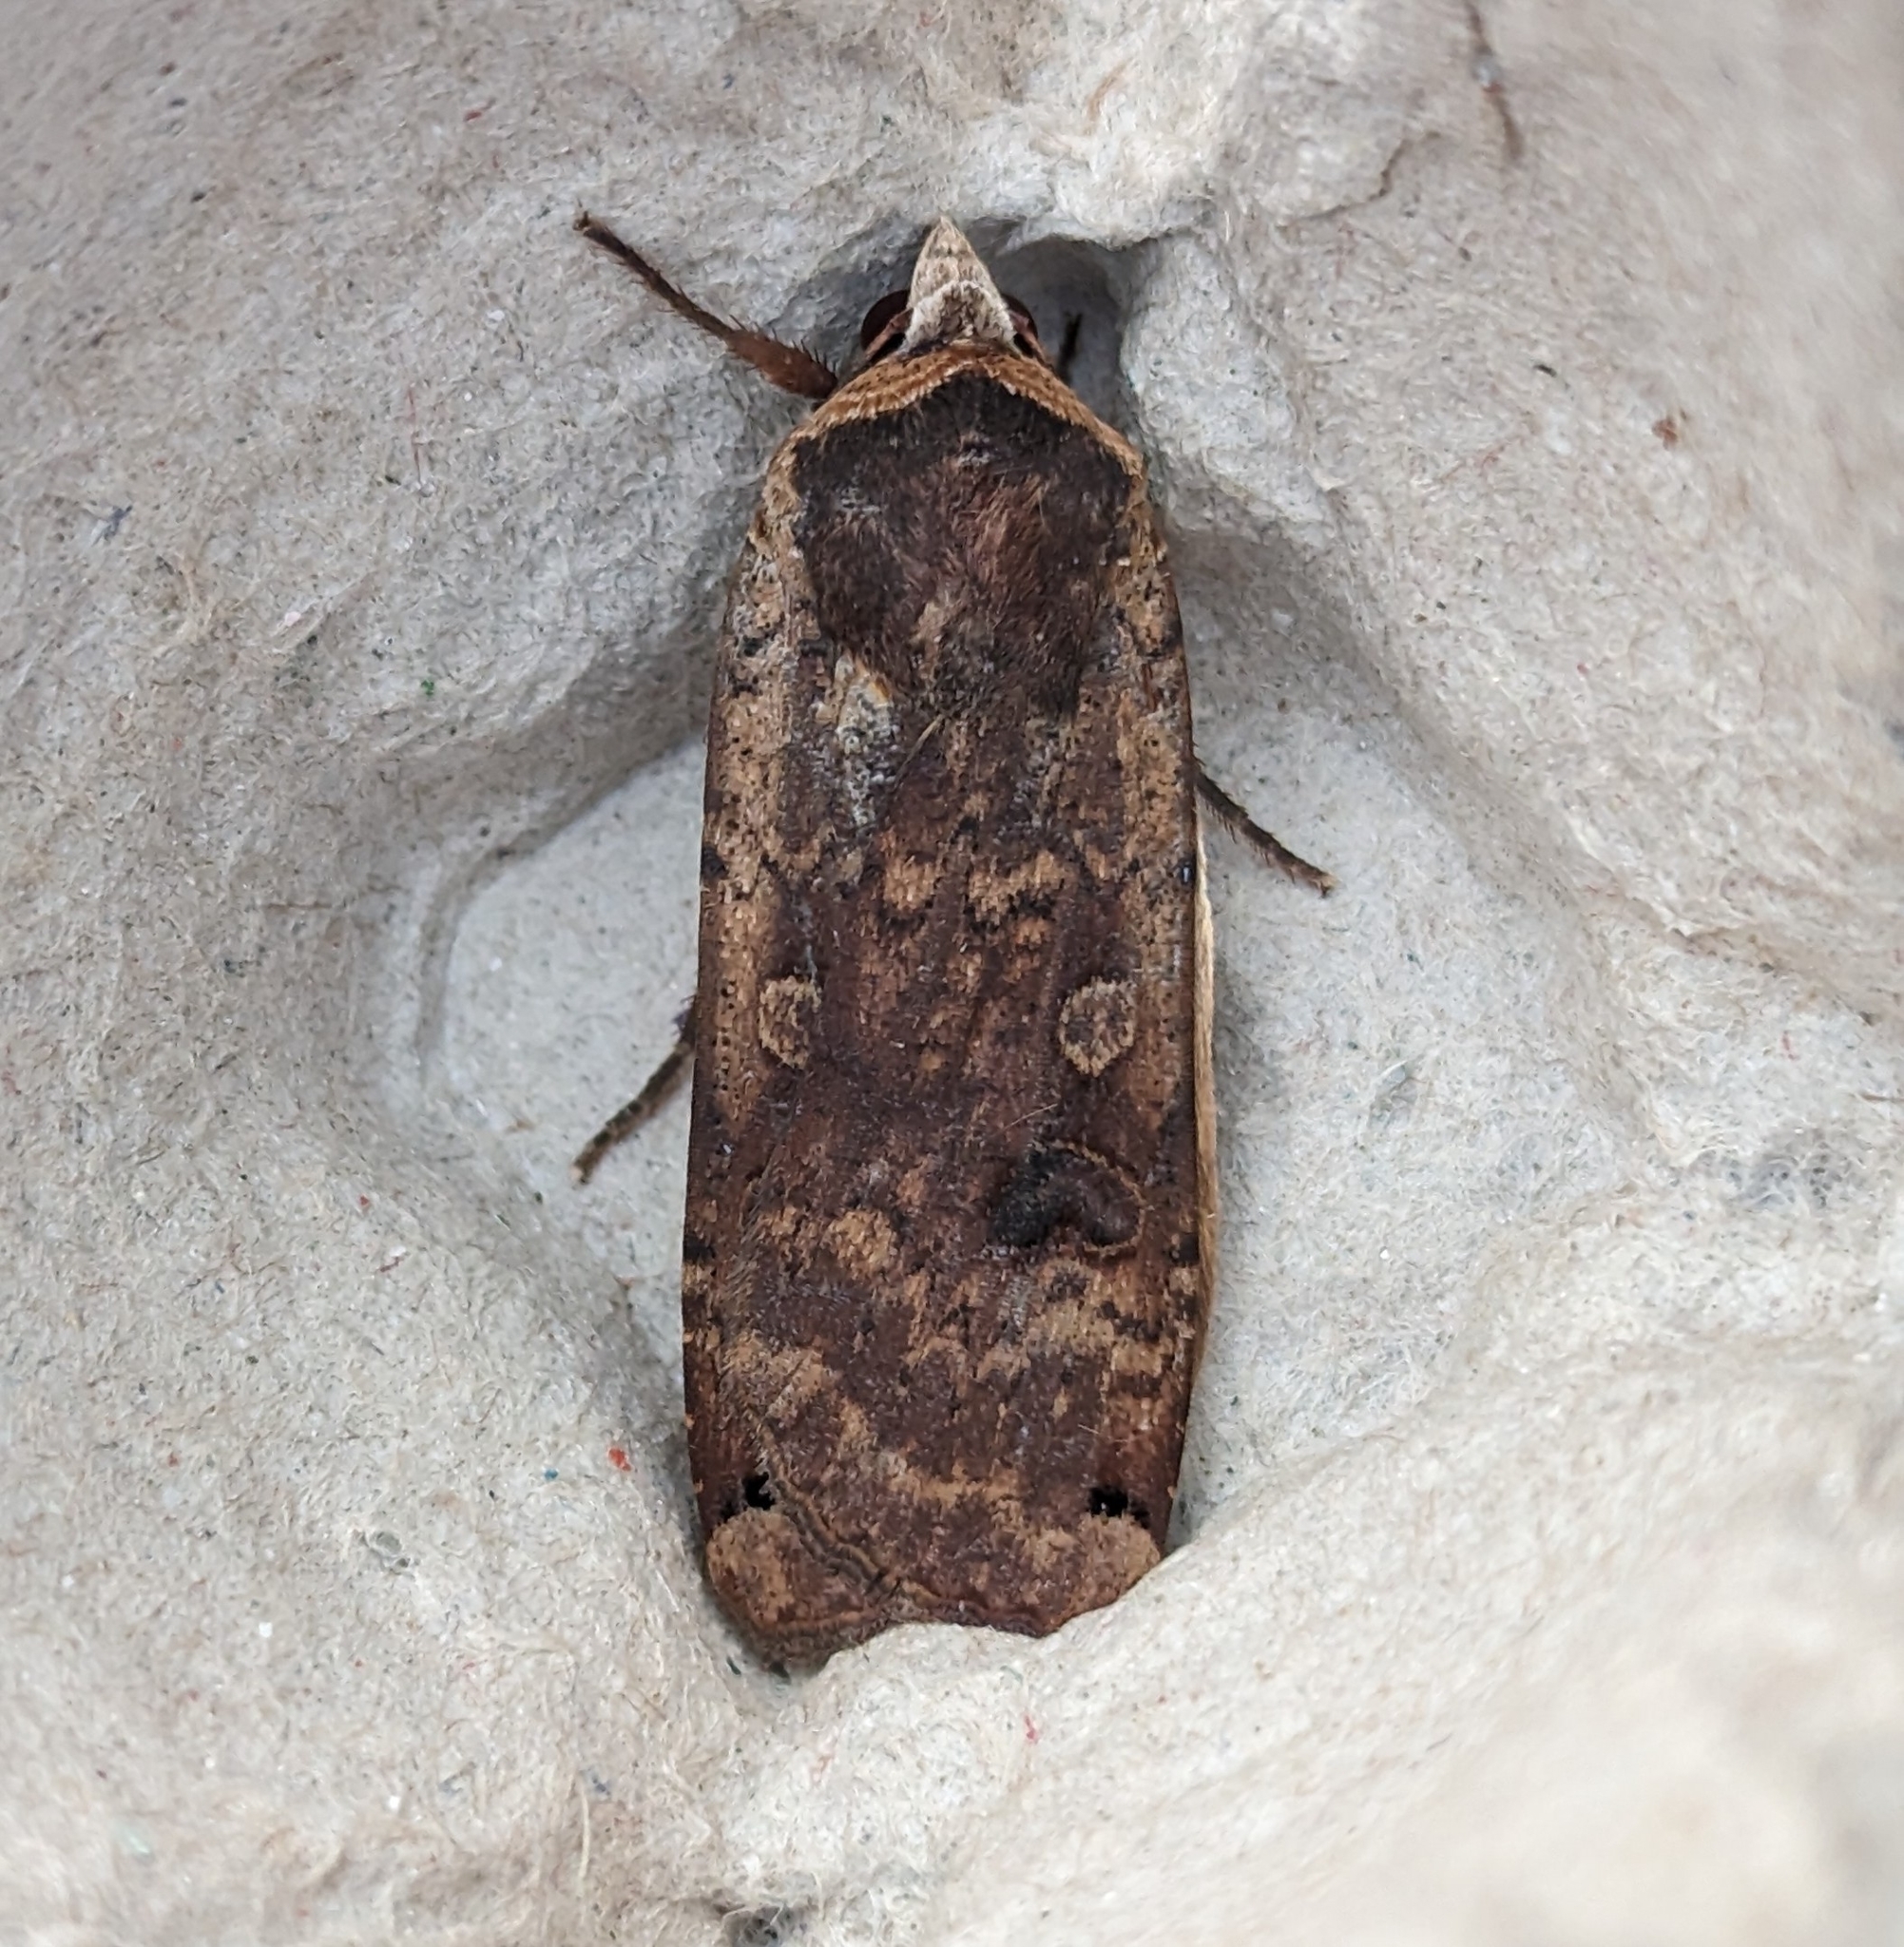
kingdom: Animalia
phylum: Arthropoda
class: Insecta
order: Lepidoptera
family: Noctuidae
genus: Noctua
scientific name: Noctua pronuba
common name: Large yellow underwing
